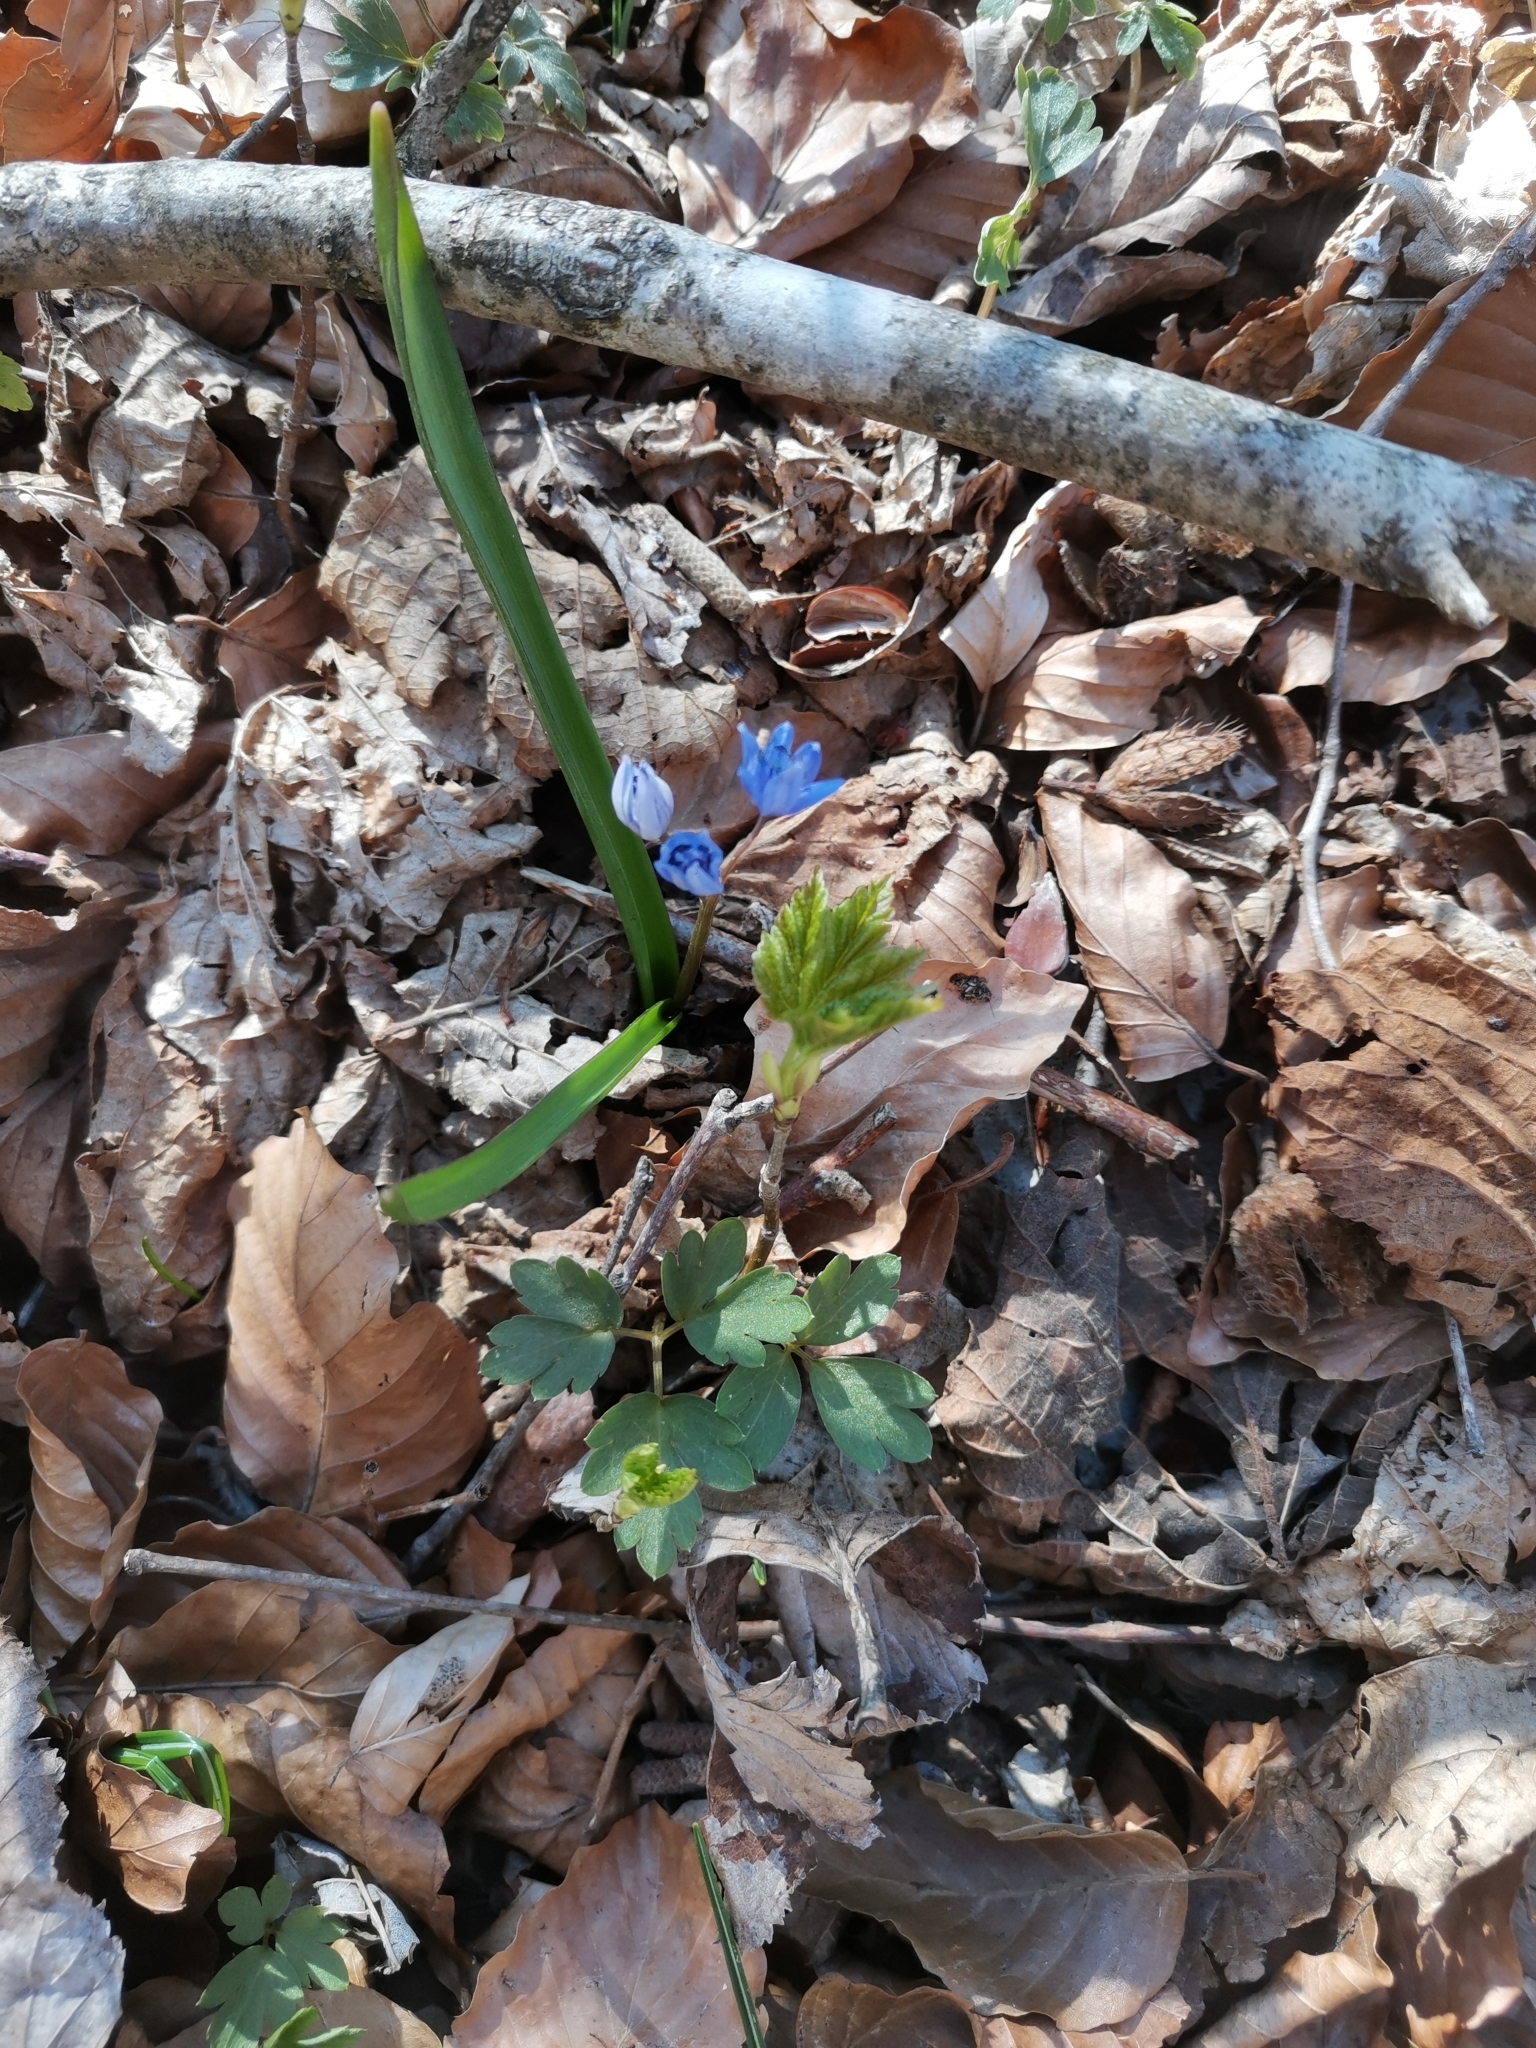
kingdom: Plantae
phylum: Tracheophyta
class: Liliopsida
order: Asparagales
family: Asparagaceae
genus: Scilla
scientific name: Scilla bifolia
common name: Alpine squill
